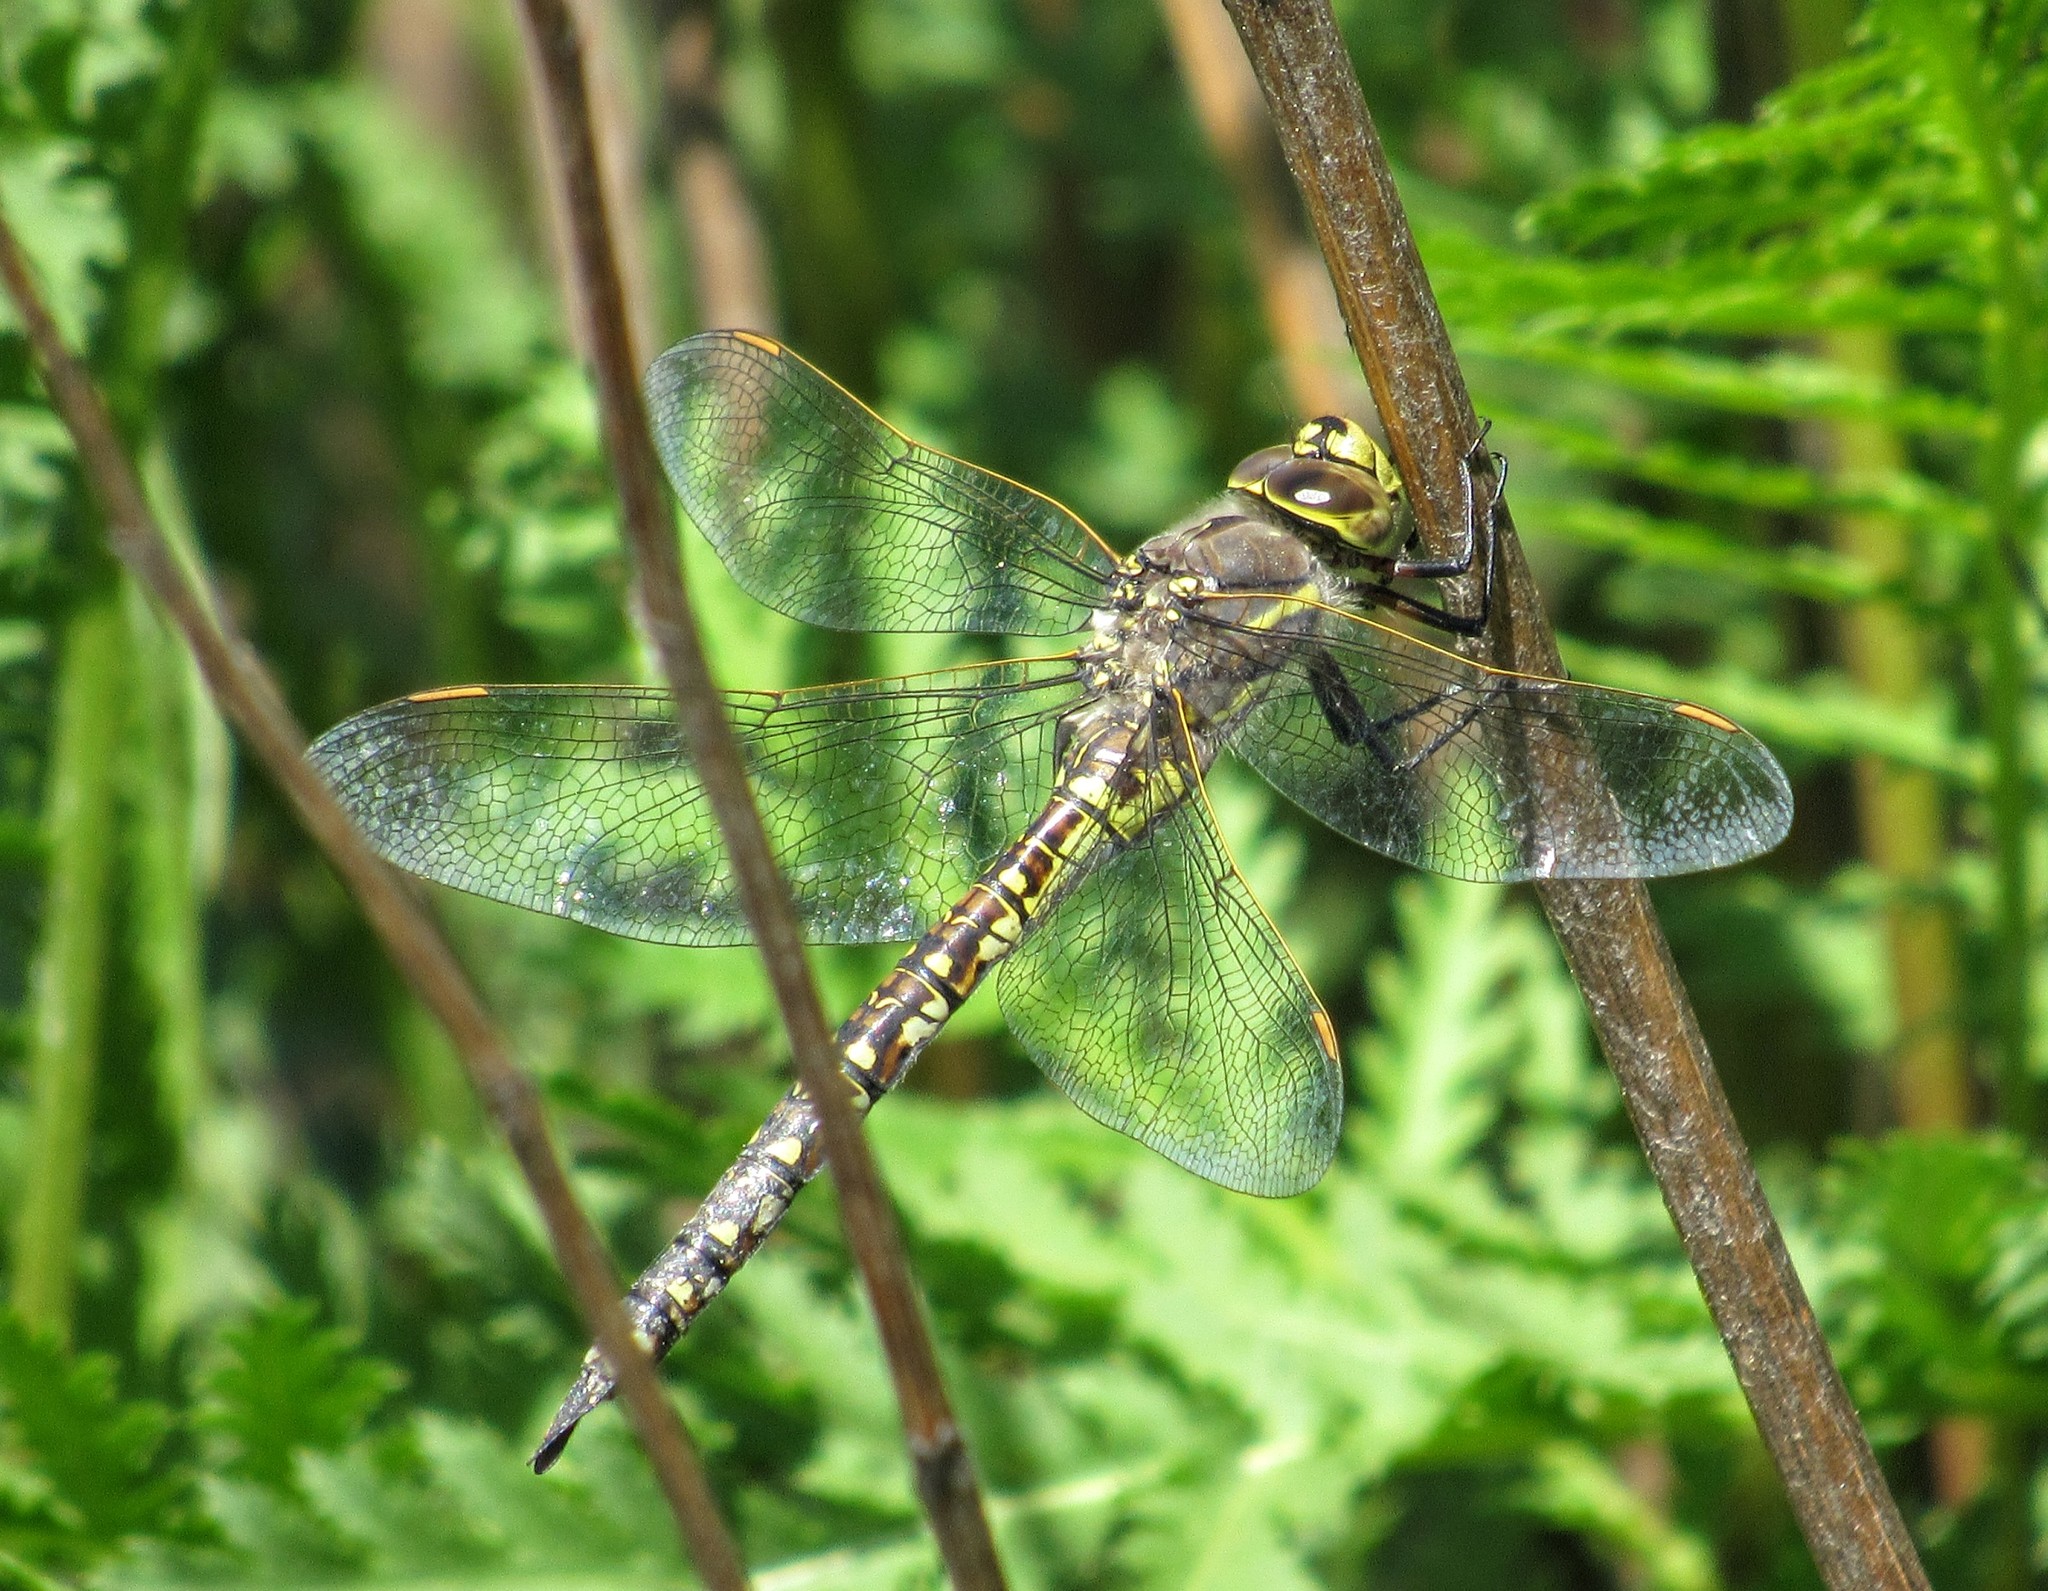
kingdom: Animalia
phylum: Arthropoda
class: Insecta
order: Odonata
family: Aeshnidae
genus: Rhionaeschna
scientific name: Rhionaeschna californica
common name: California darner
